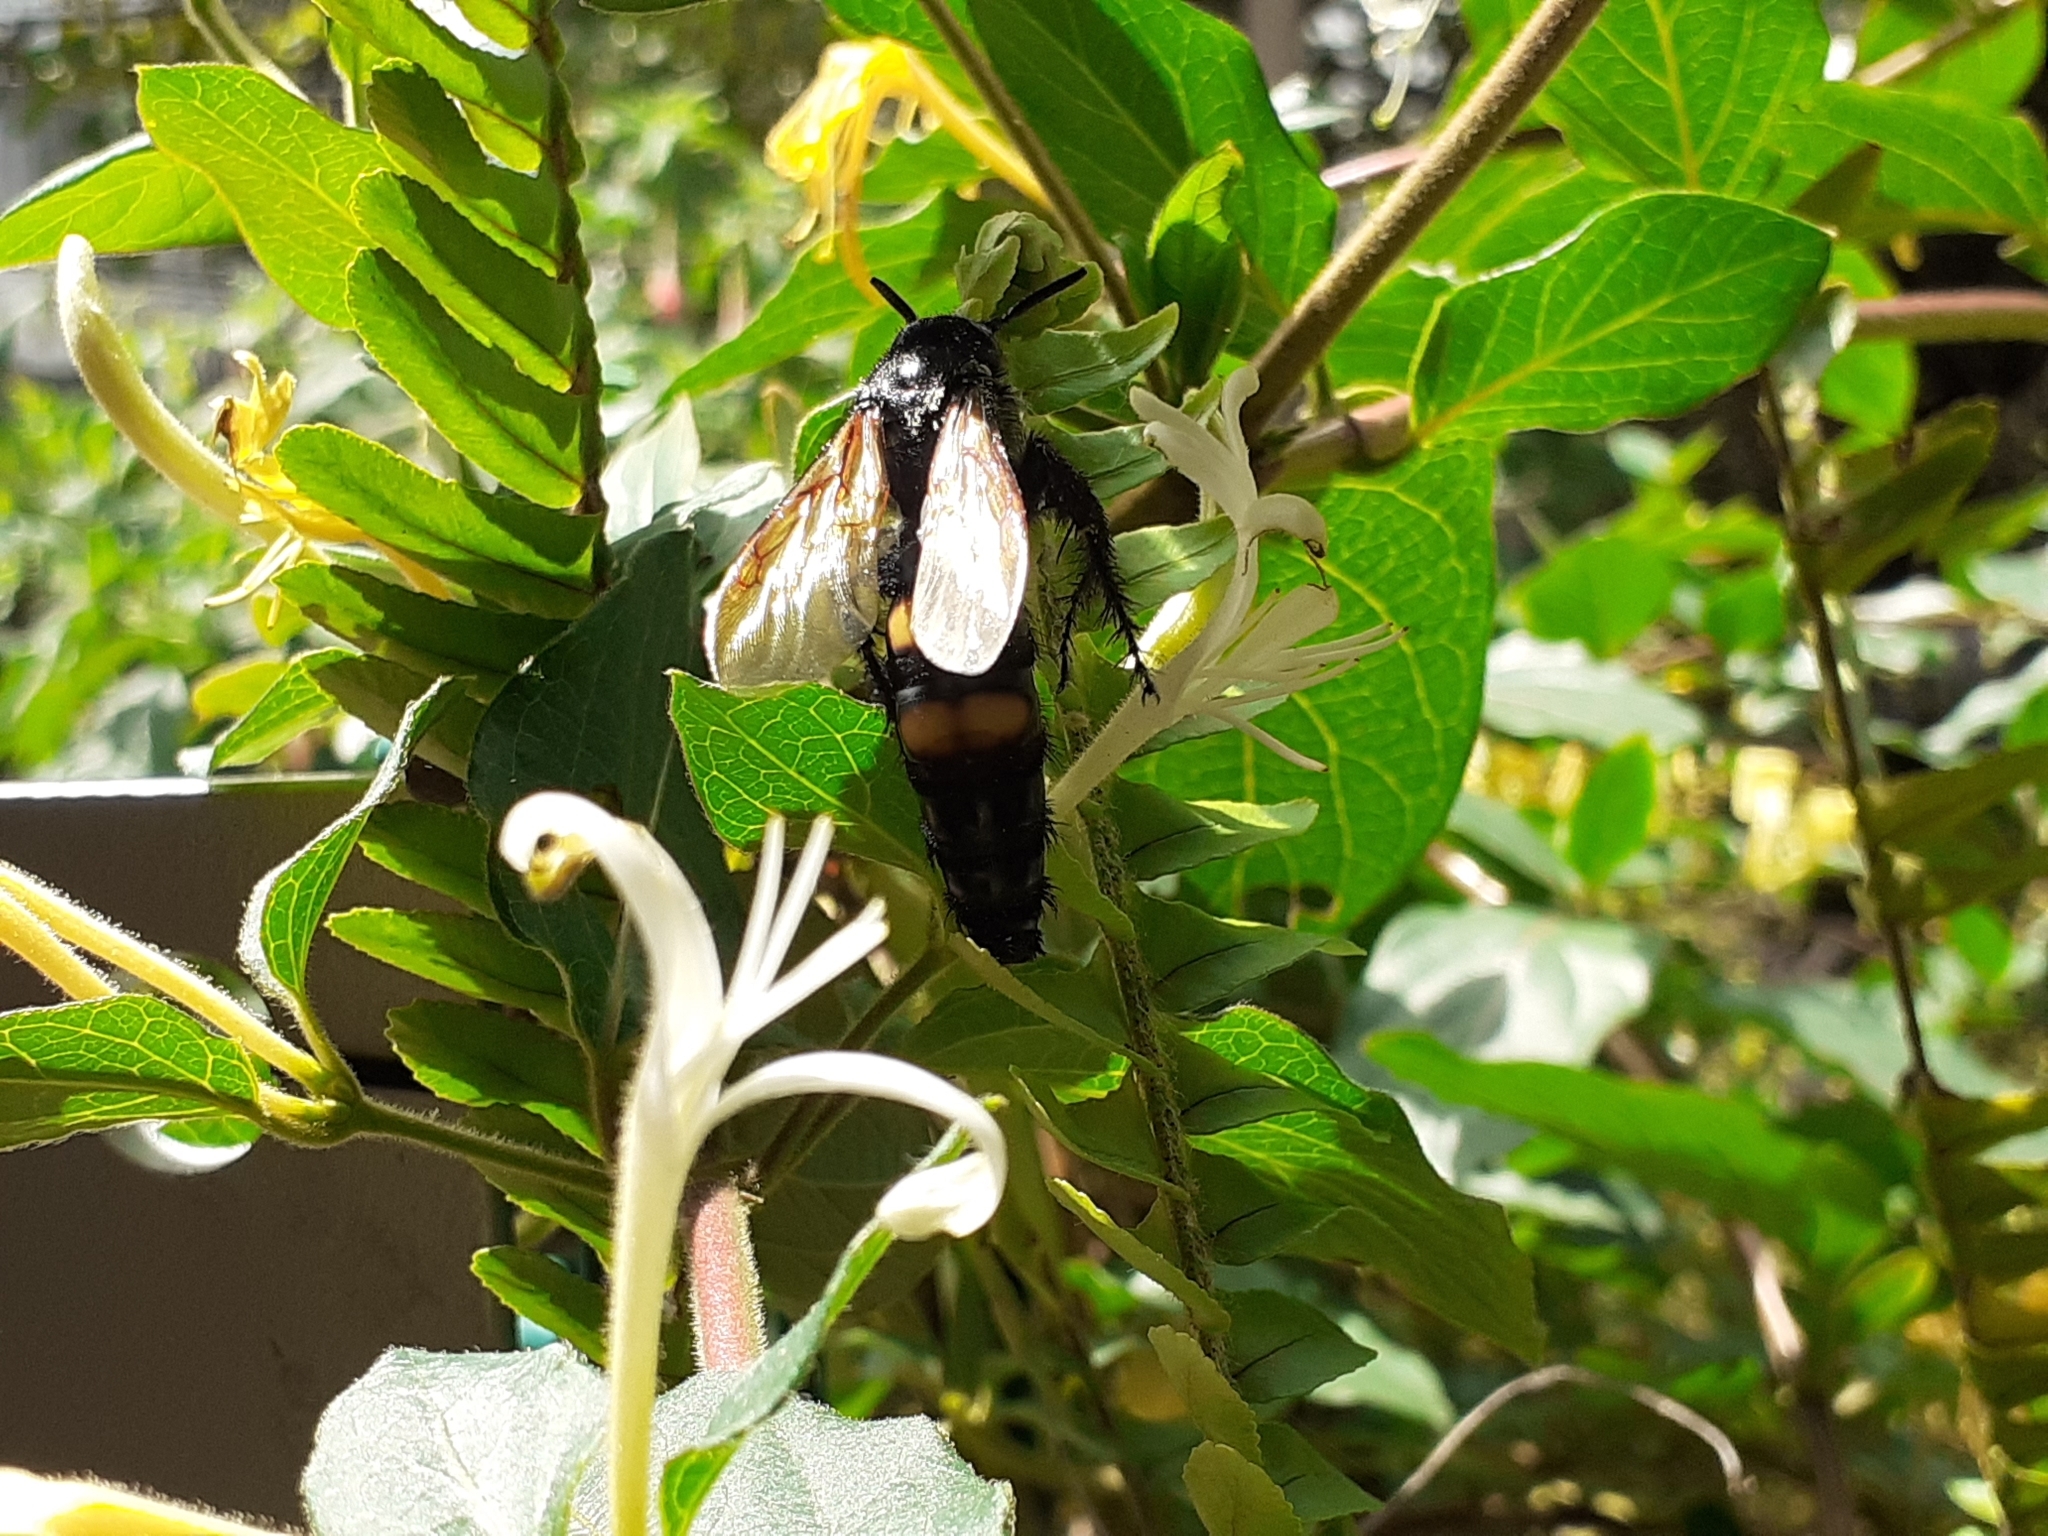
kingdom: Animalia
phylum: Arthropoda
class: Insecta
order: Hymenoptera
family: Scoliidae
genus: Pygodasis
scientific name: Pygodasis ephippium
